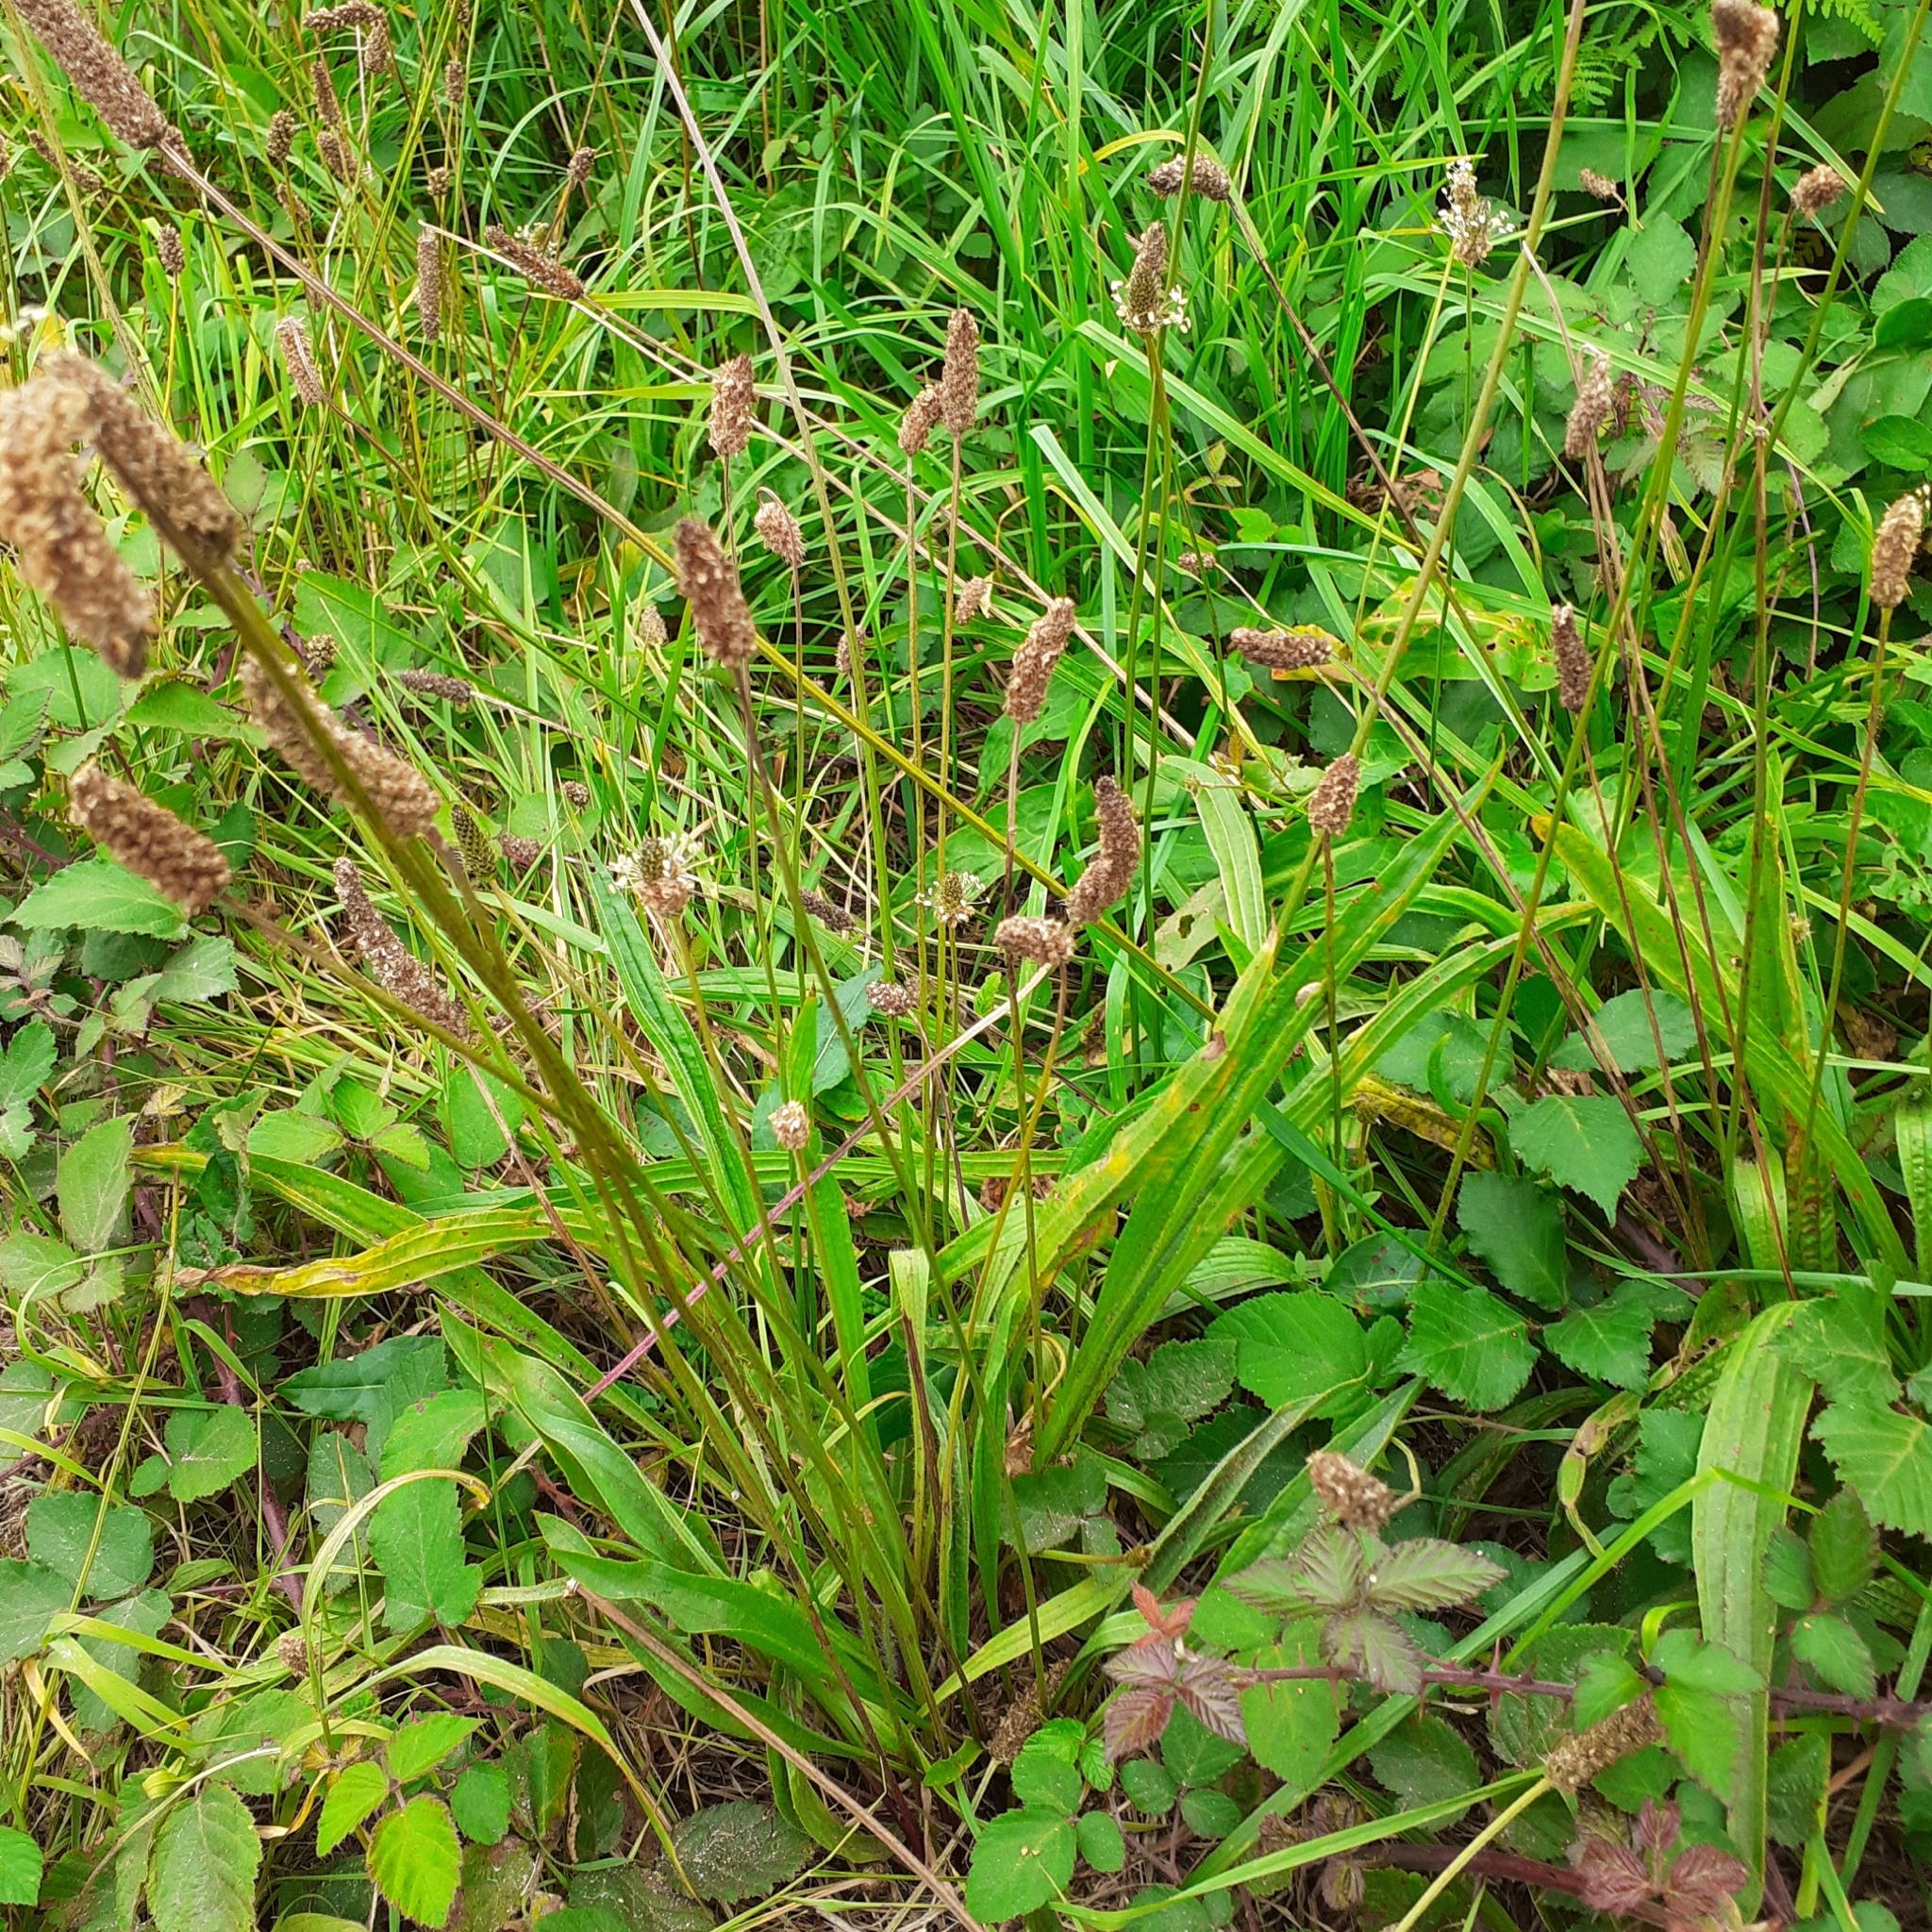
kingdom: Plantae
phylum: Tracheophyta
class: Magnoliopsida
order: Lamiales
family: Plantaginaceae
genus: Plantago
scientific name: Plantago lanceolata
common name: Ribwort plantain
